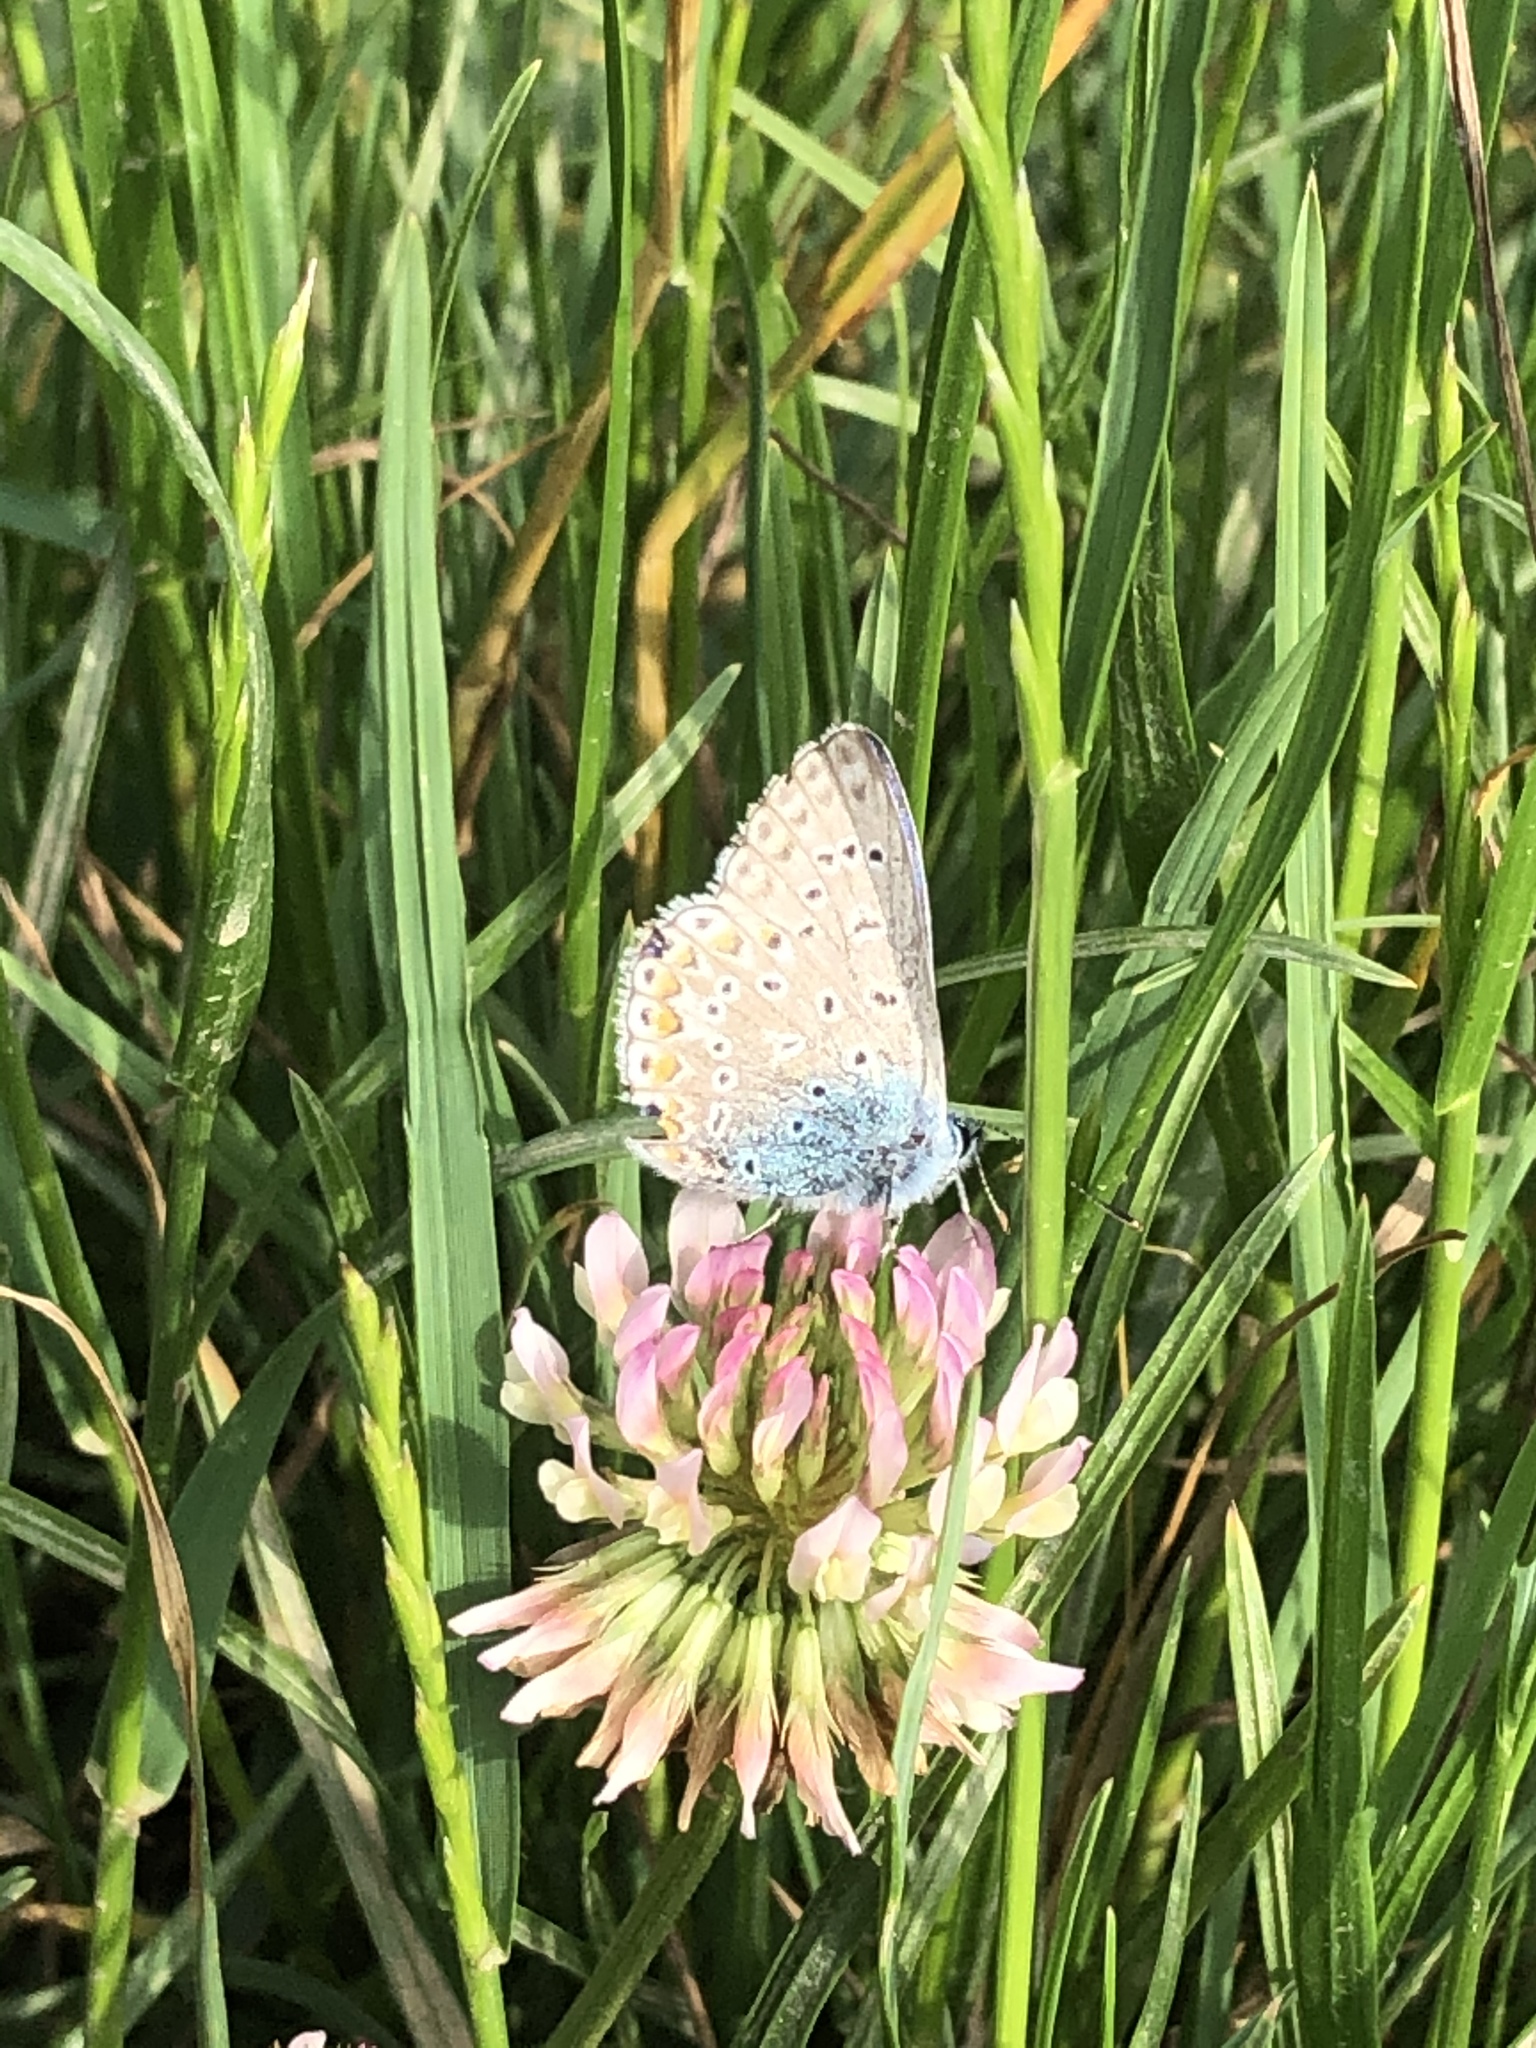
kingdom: Animalia
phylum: Arthropoda
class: Insecta
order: Lepidoptera
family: Lycaenidae
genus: Polyommatus
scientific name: Polyommatus icarus
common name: Common blue
